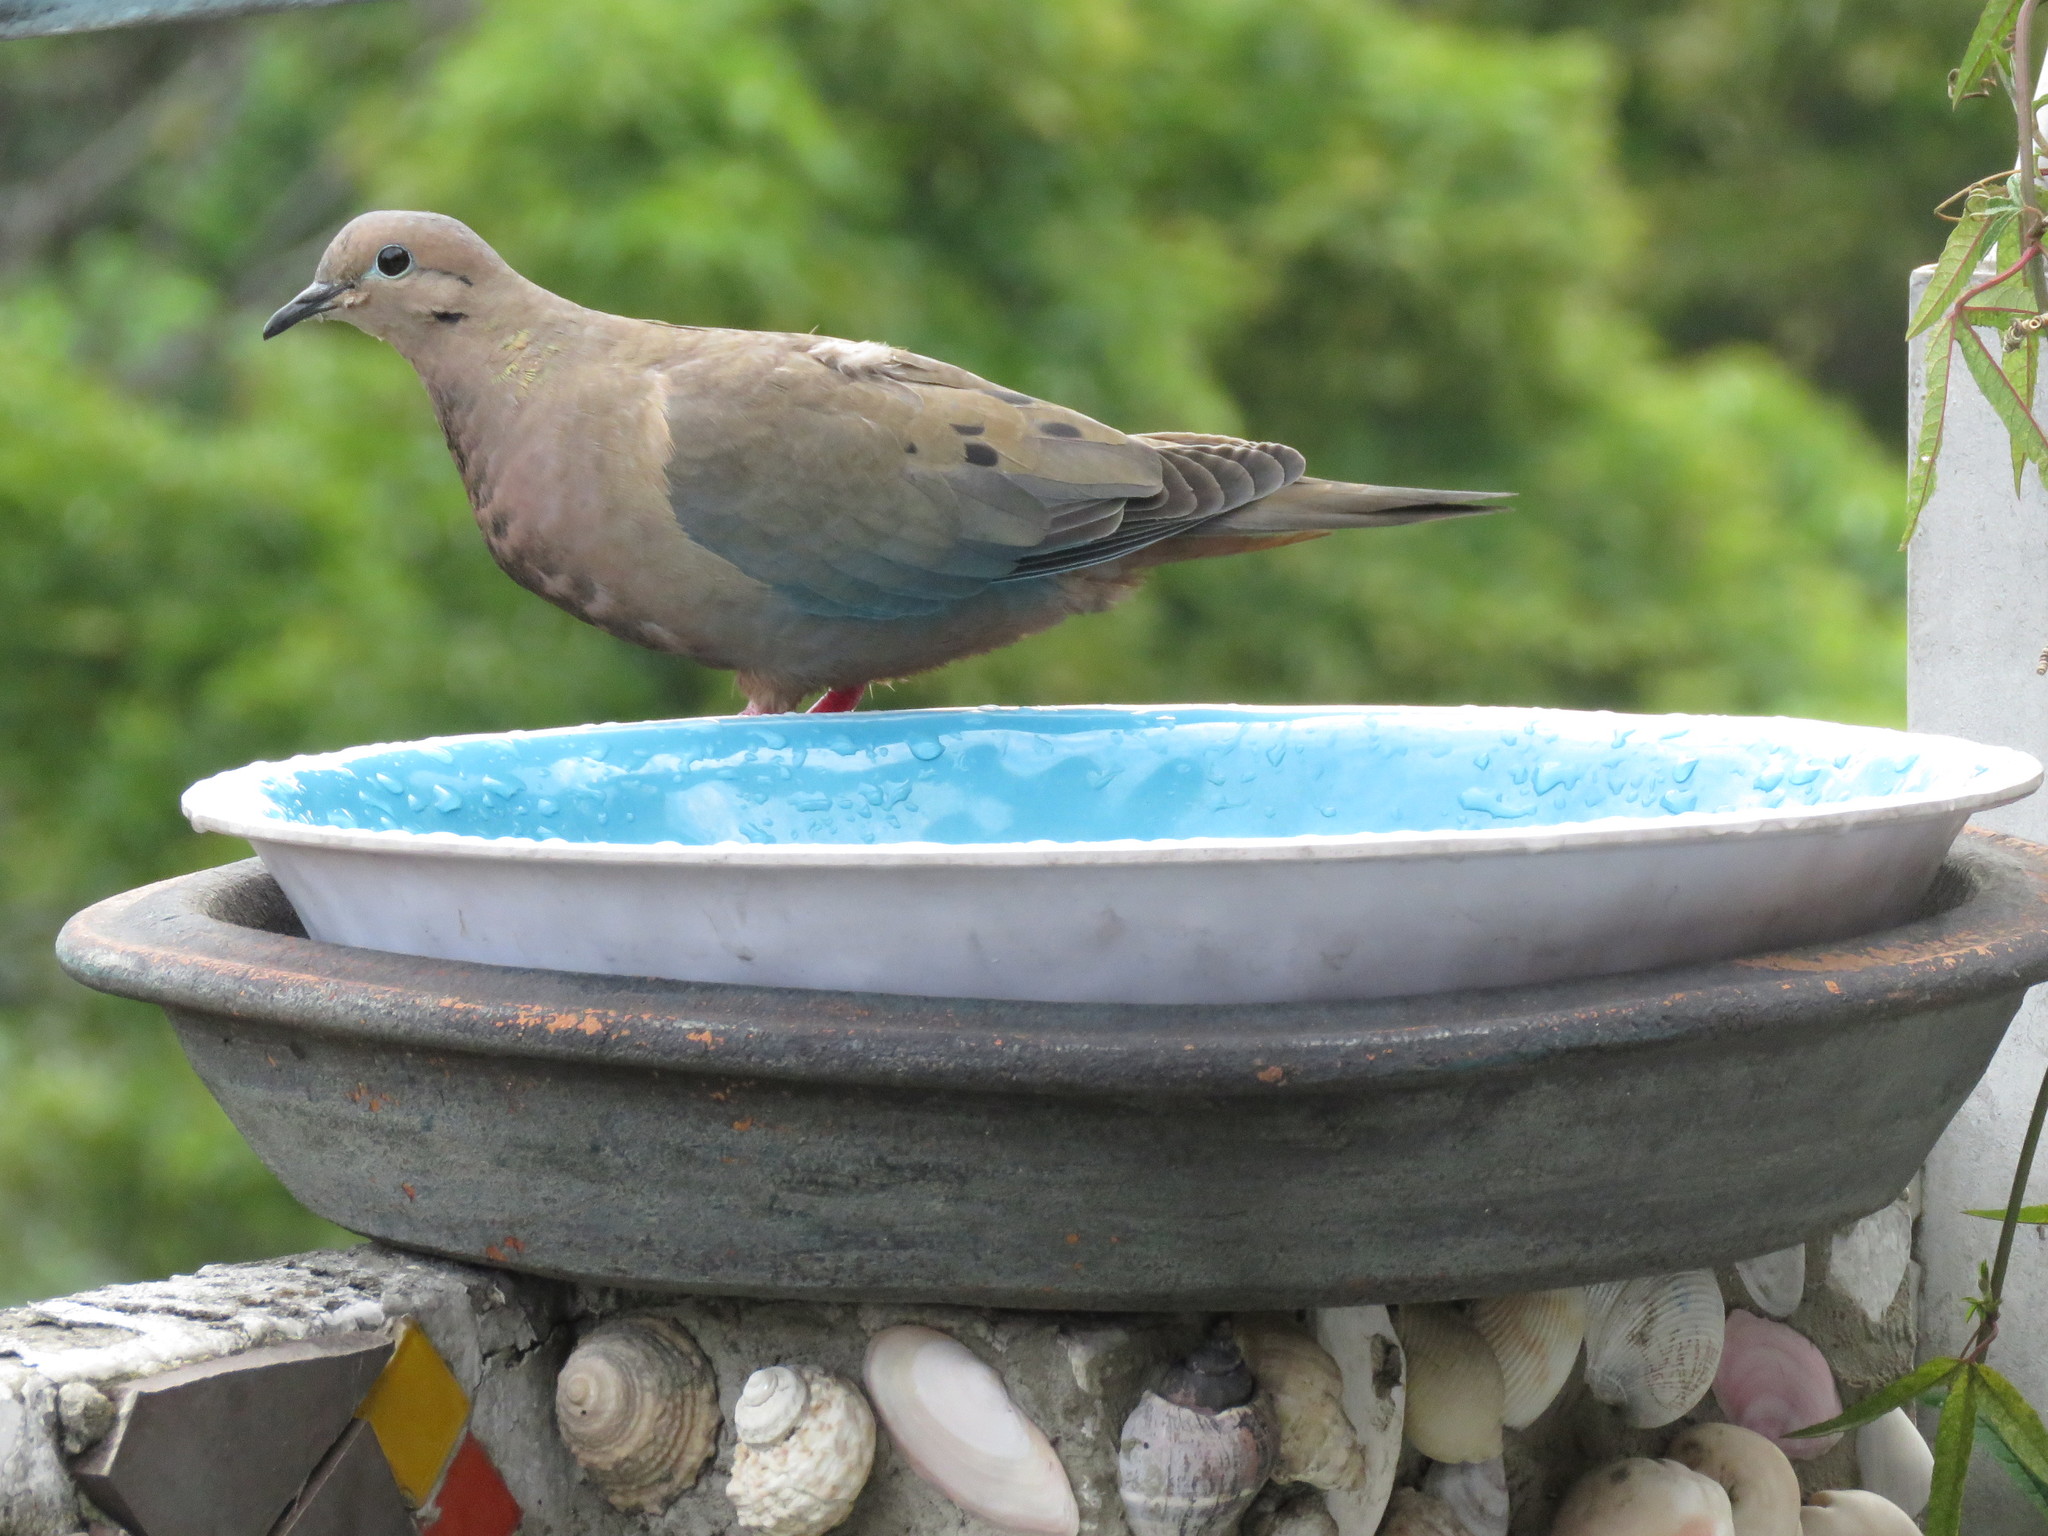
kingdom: Animalia
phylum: Chordata
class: Aves
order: Columbiformes
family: Columbidae
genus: Zenaida
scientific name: Zenaida auriculata
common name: Eared dove
